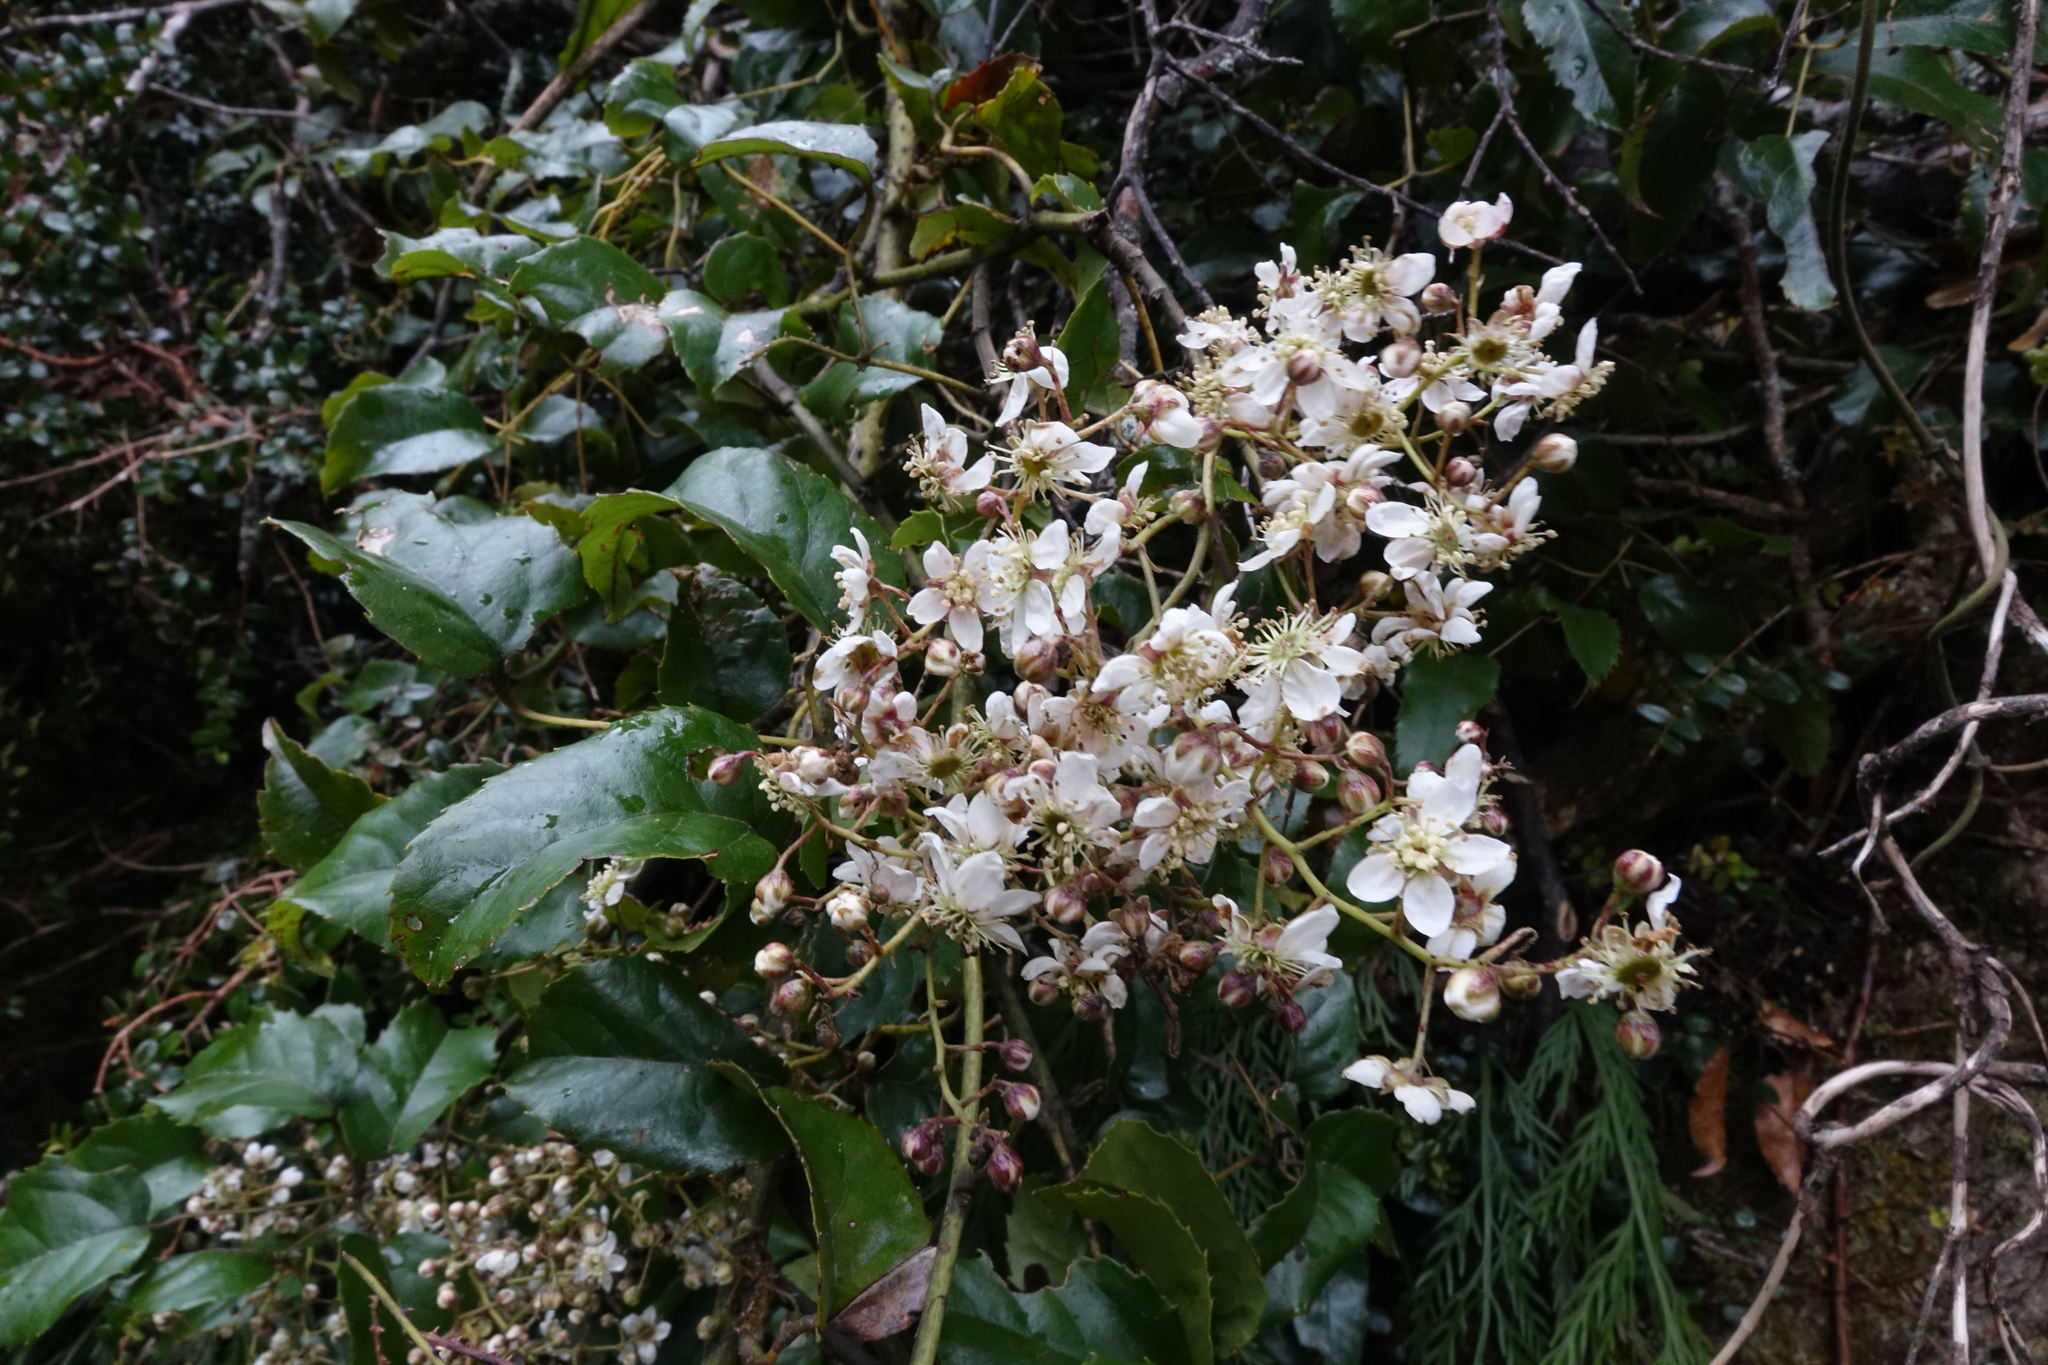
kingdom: Plantae
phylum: Tracheophyta
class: Magnoliopsida
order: Rosales
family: Rosaceae
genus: Rubus
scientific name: Rubus cissoides
